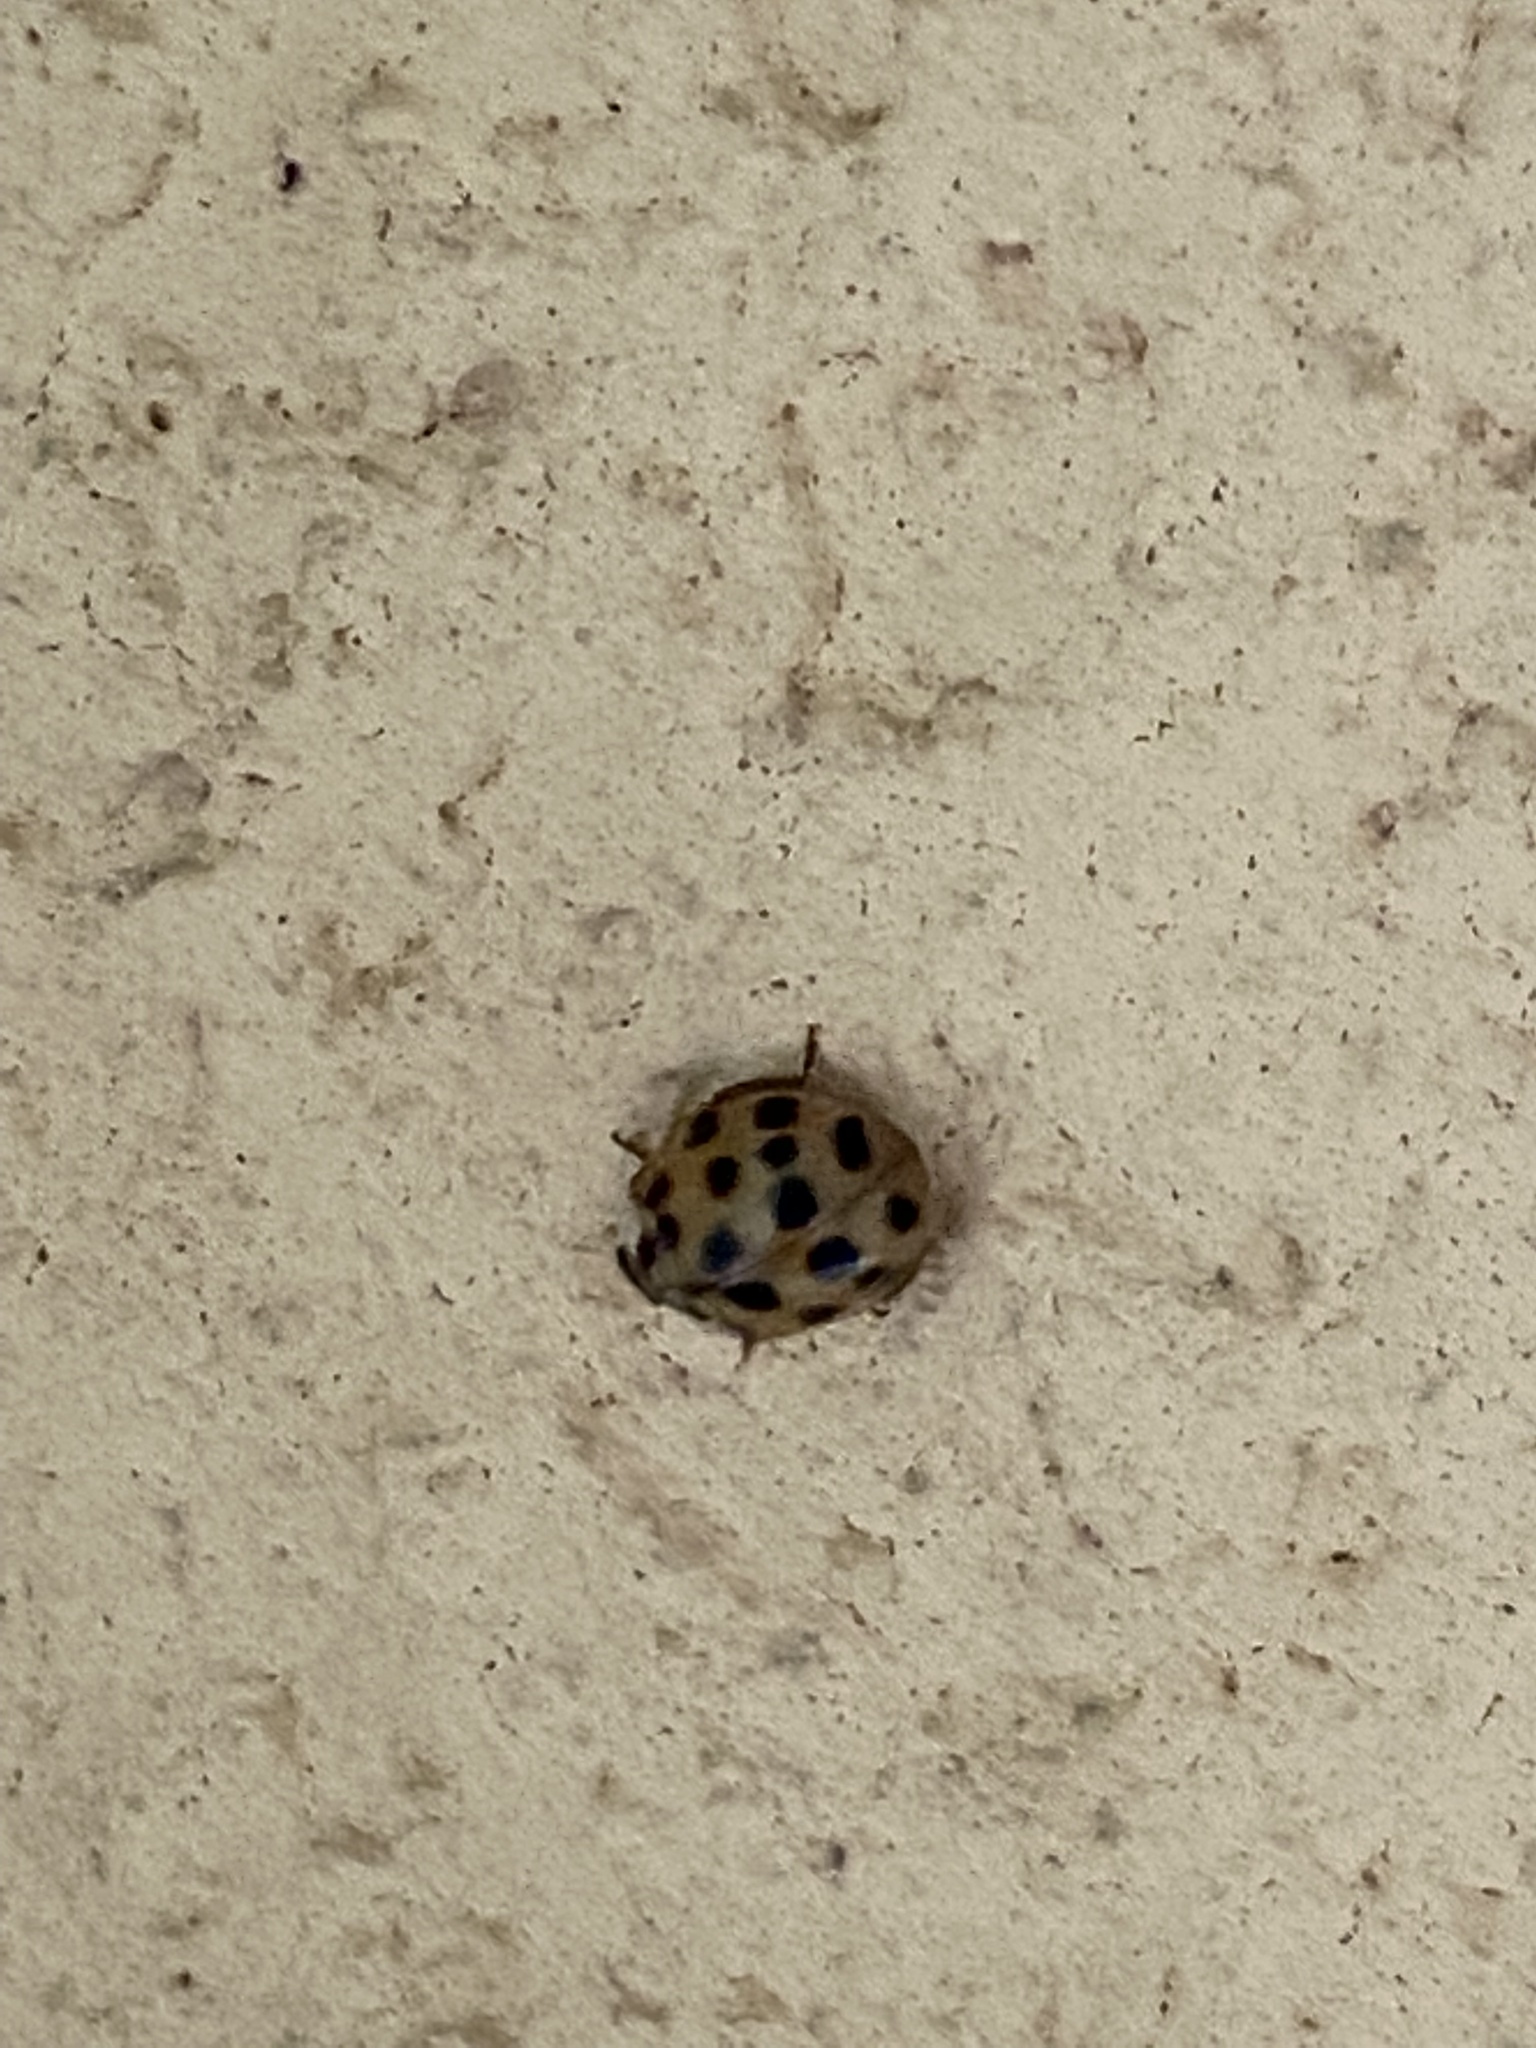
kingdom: Animalia
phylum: Arthropoda
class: Insecta
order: Coleoptera
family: Coccinellidae
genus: Harmonia
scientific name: Harmonia axyridis
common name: Harlequin ladybird
